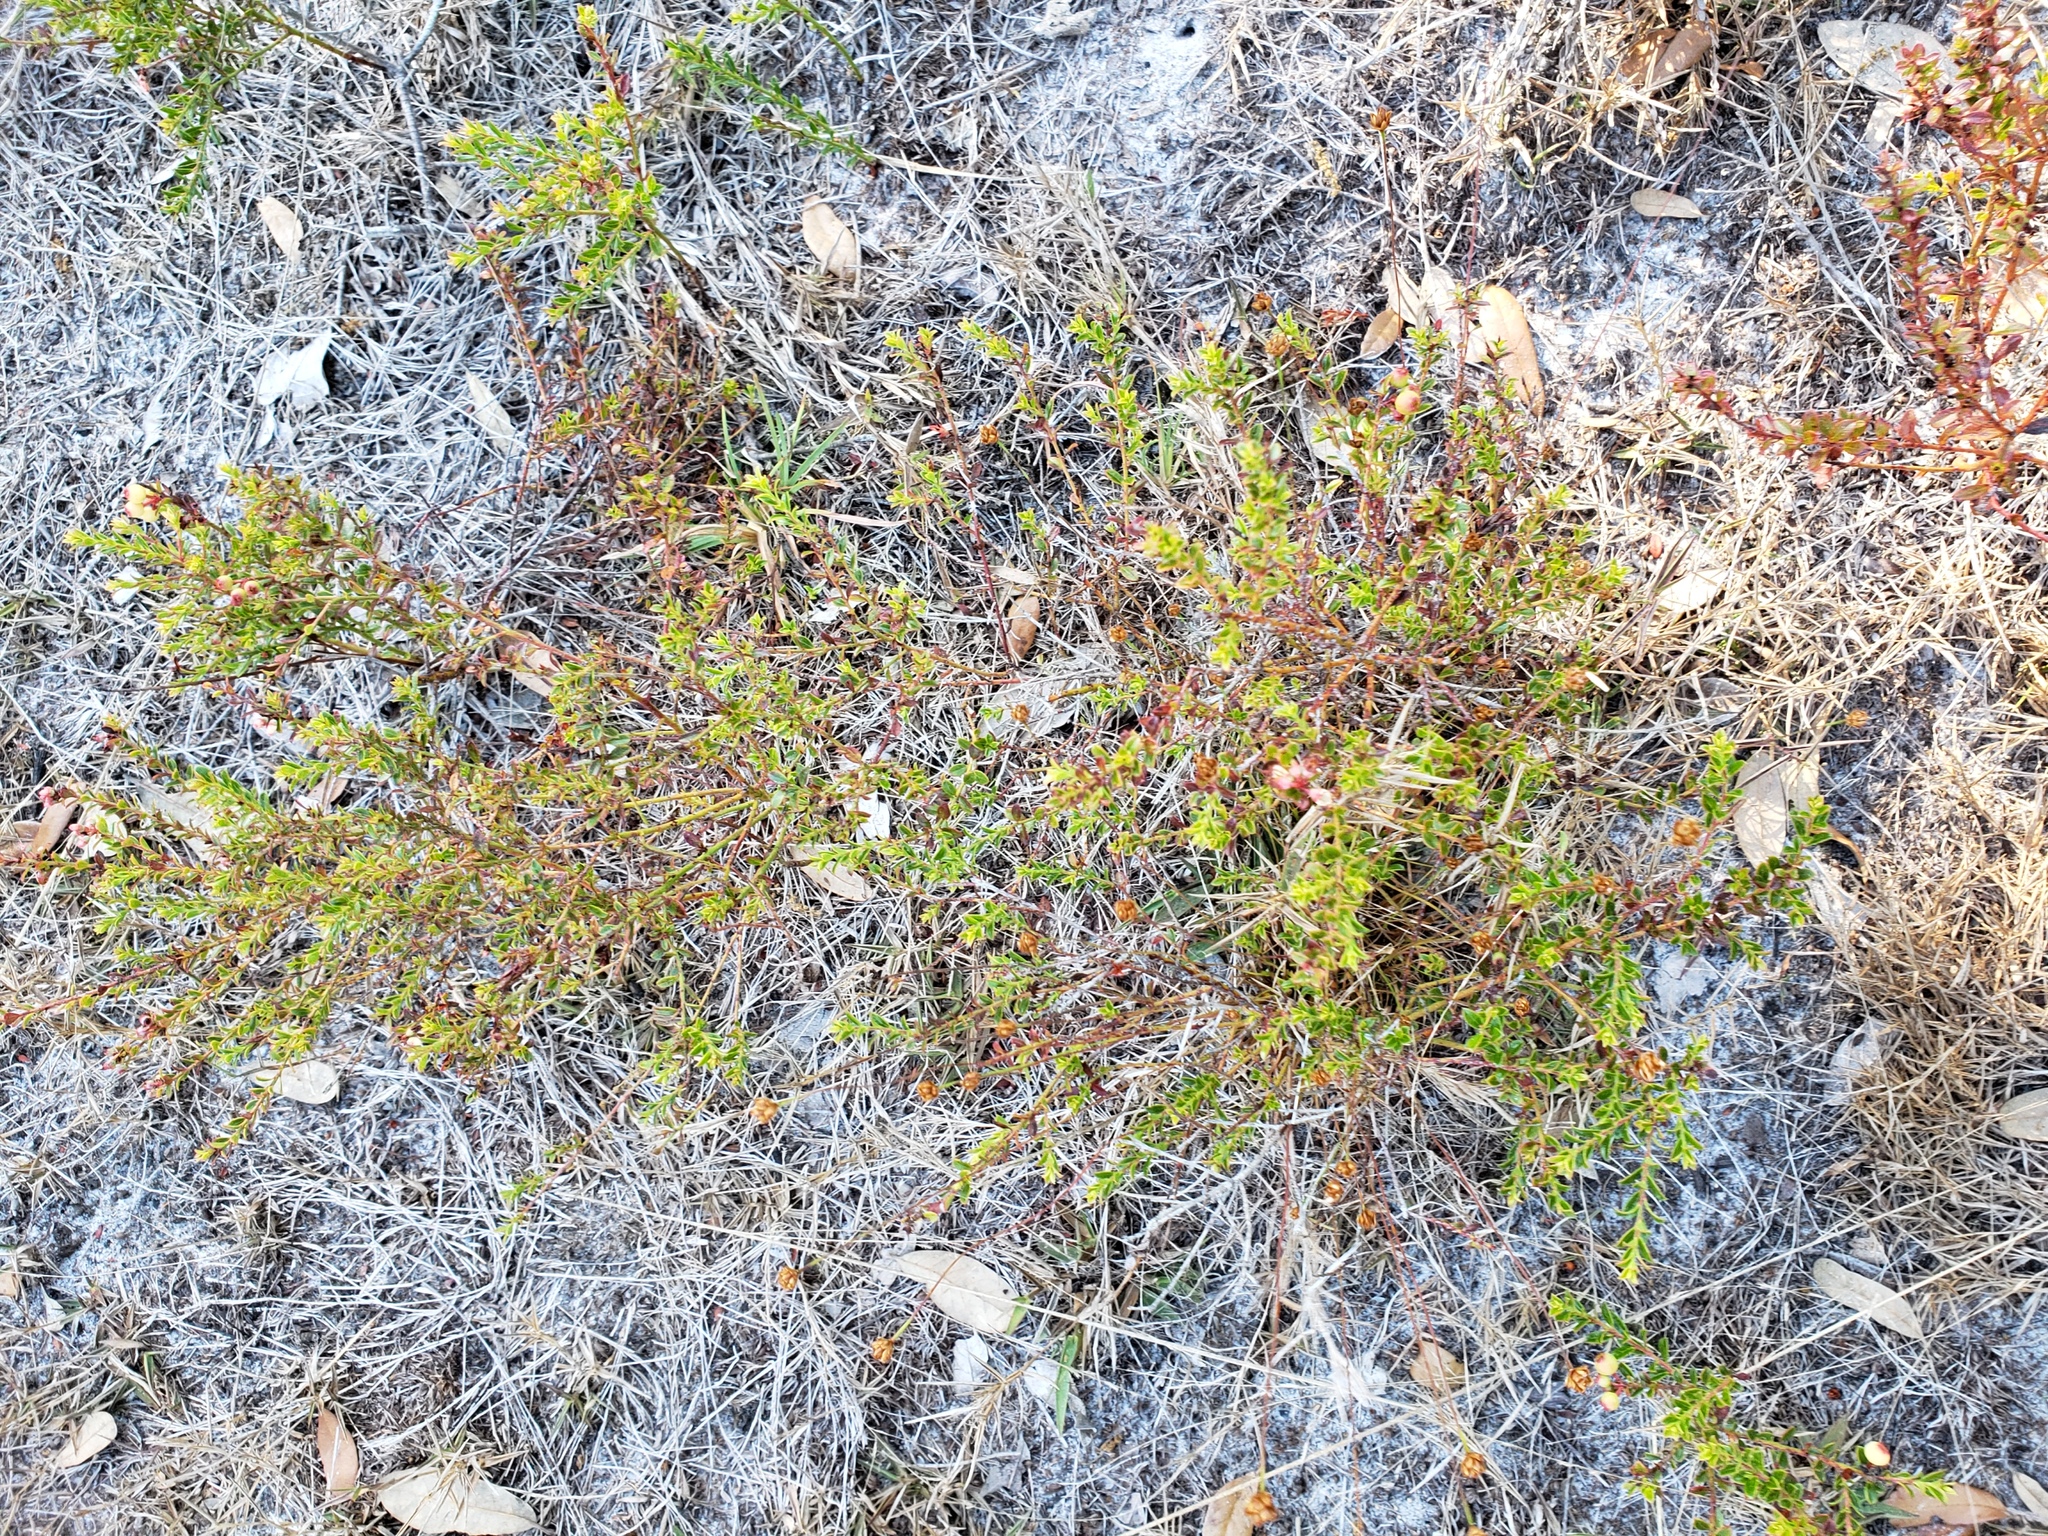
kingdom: Plantae
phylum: Tracheophyta
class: Magnoliopsida
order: Ericales
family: Ericaceae
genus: Vaccinium
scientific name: Vaccinium myrsinites
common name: Evergreen blueberry
